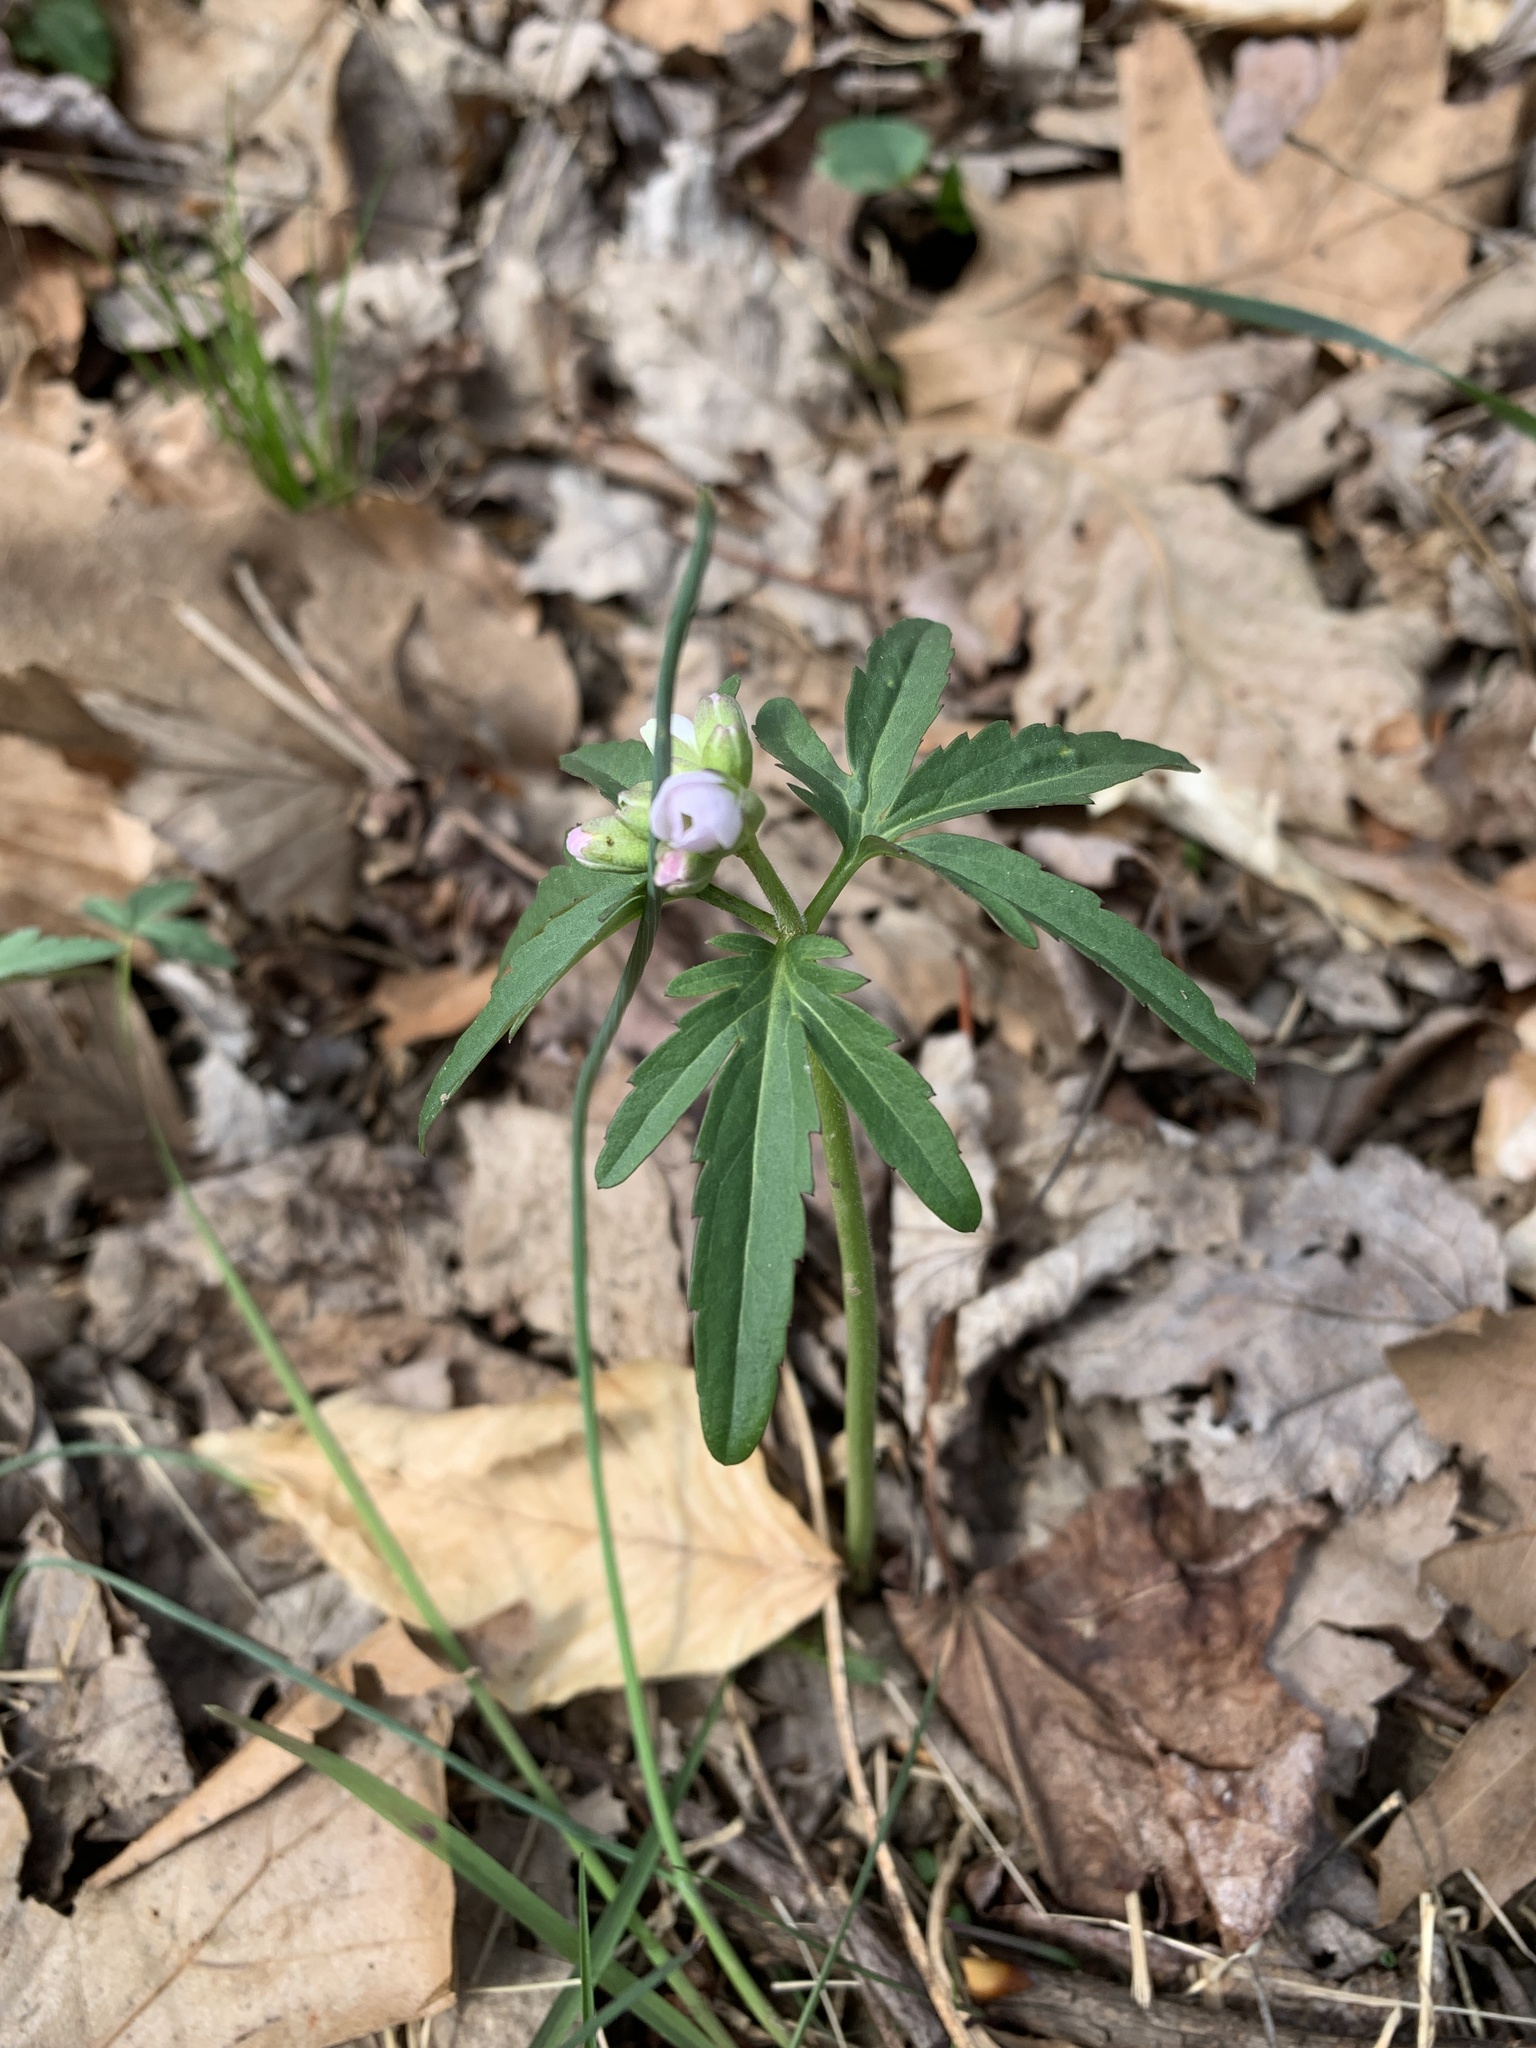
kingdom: Plantae
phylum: Tracheophyta
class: Magnoliopsida
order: Brassicales
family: Brassicaceae
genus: Cardamine
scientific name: Cardamine concatenata
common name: Cut-leaf toothcup
